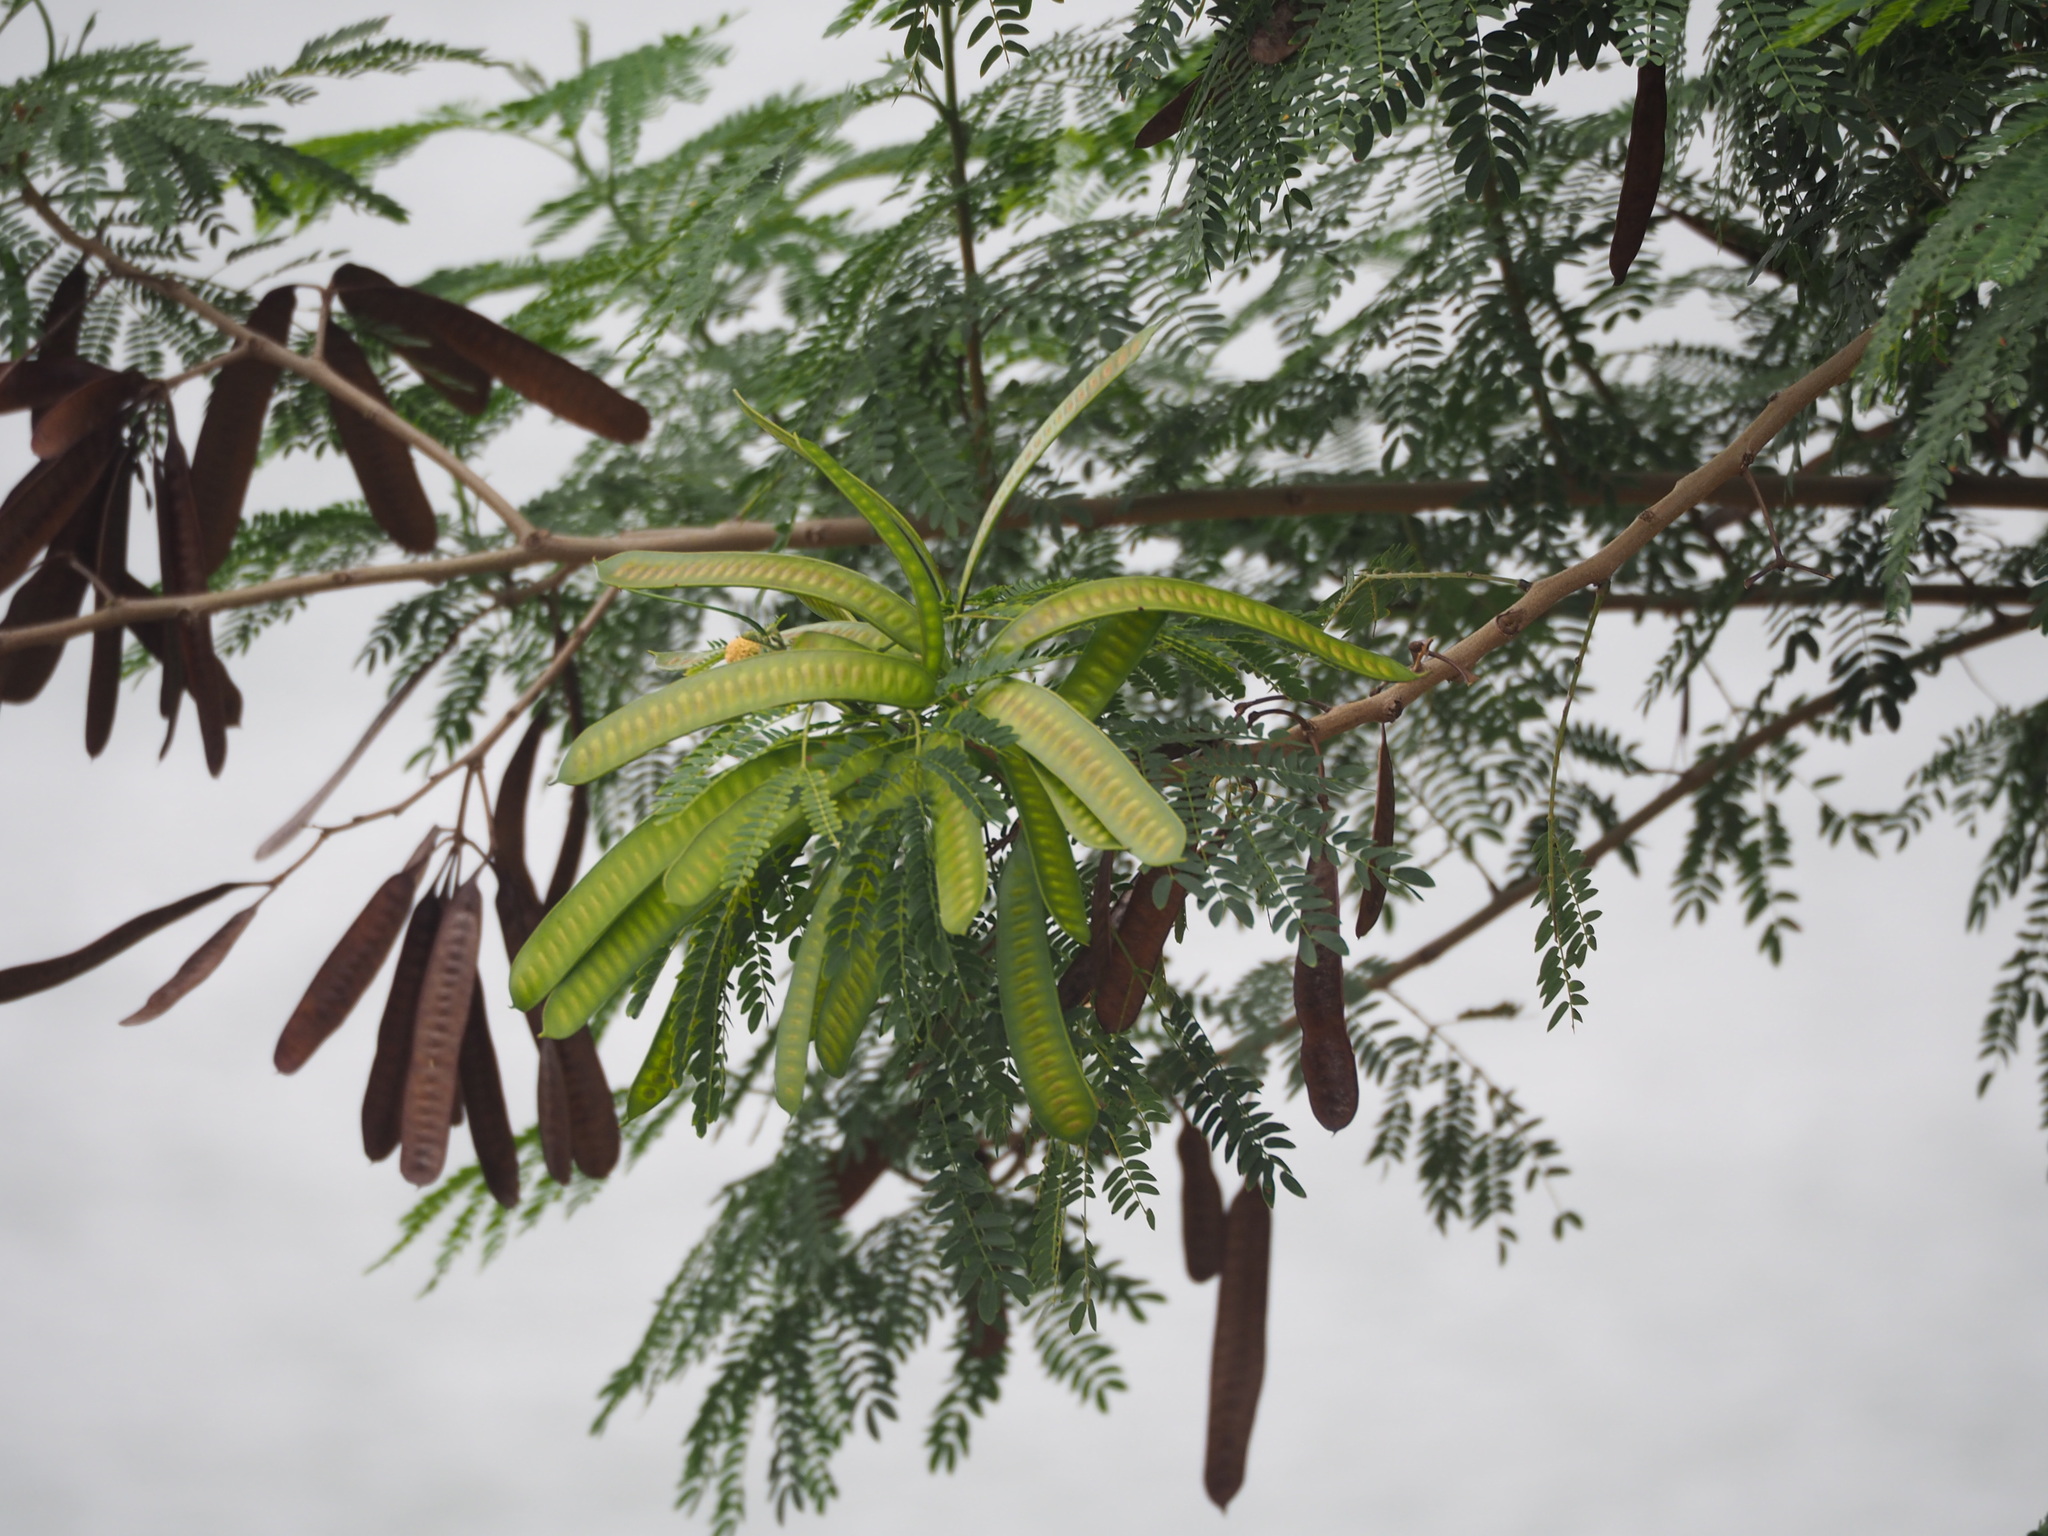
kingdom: Plantae
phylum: Tracheophyta
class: Magnoliopsida
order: Fabales
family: Fabaceae
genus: Leucaena
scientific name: Leucaena leucocephala
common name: White leadtree
